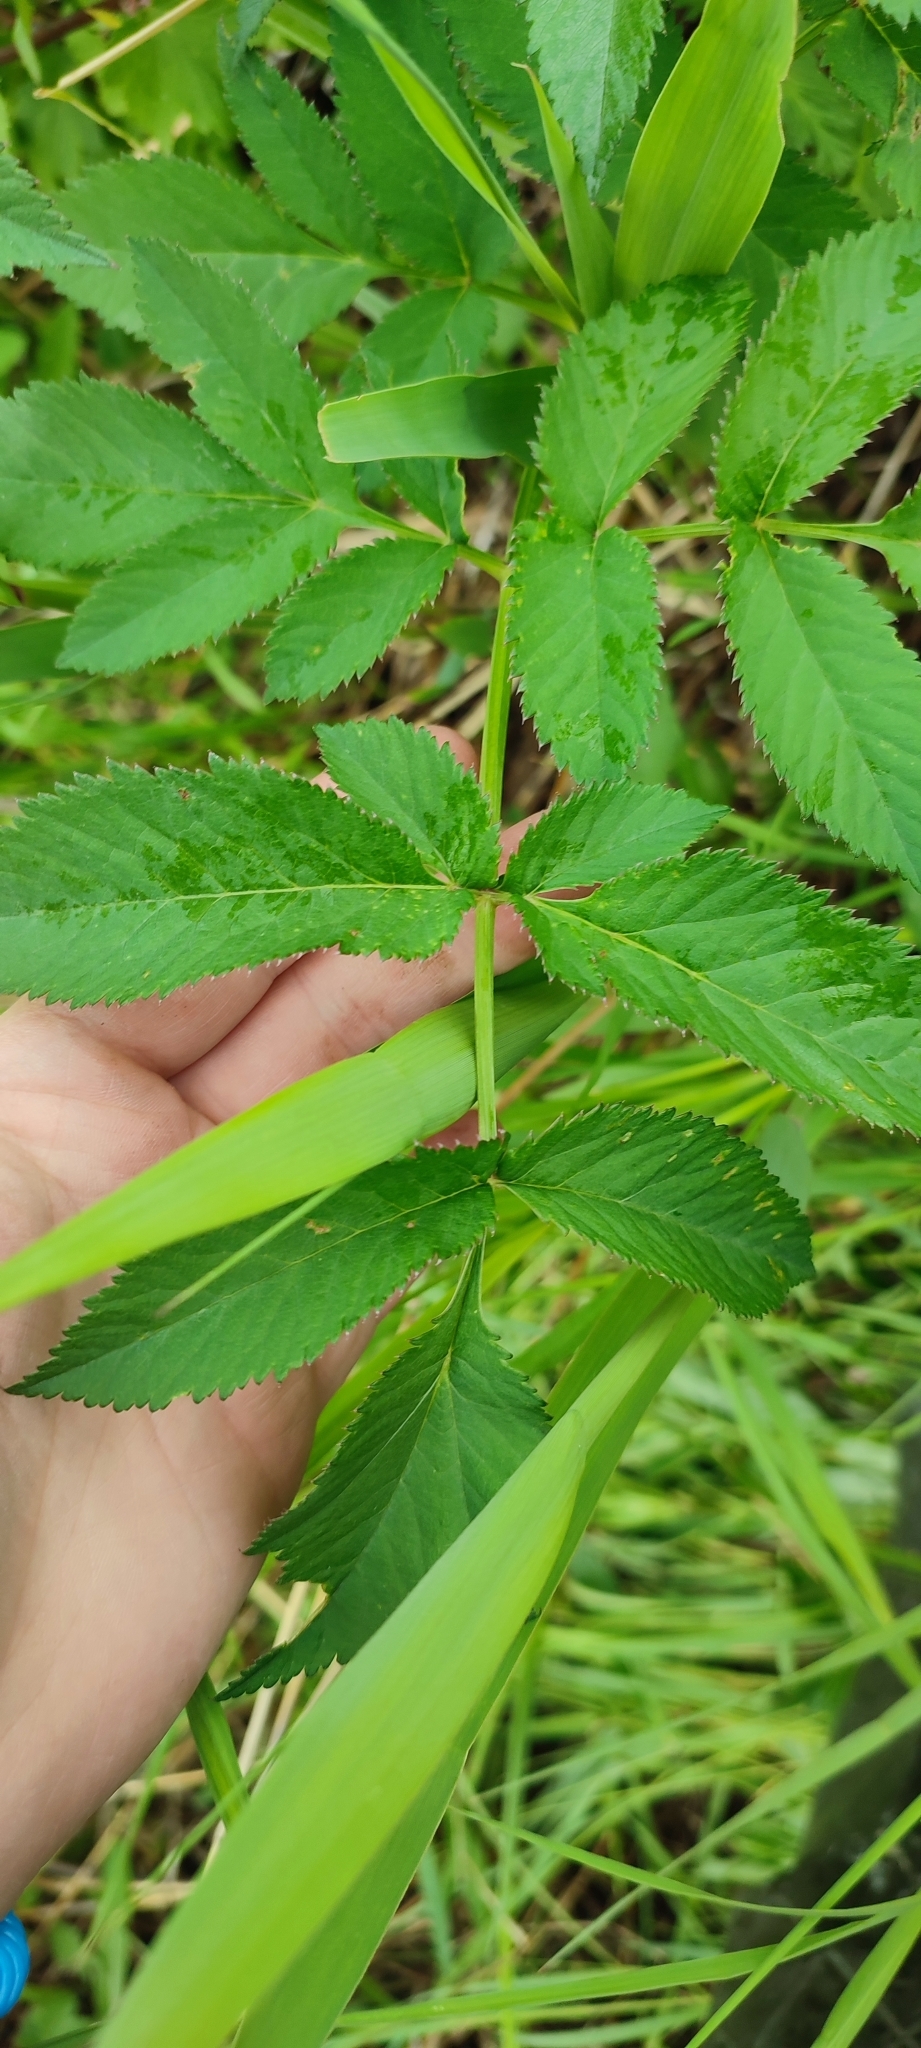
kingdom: Plantae
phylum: Tracheophyta
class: Magnoliopsida
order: Apiales
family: Apiaceae
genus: Angelica
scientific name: Angelica sylvestris
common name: Wild angelica
